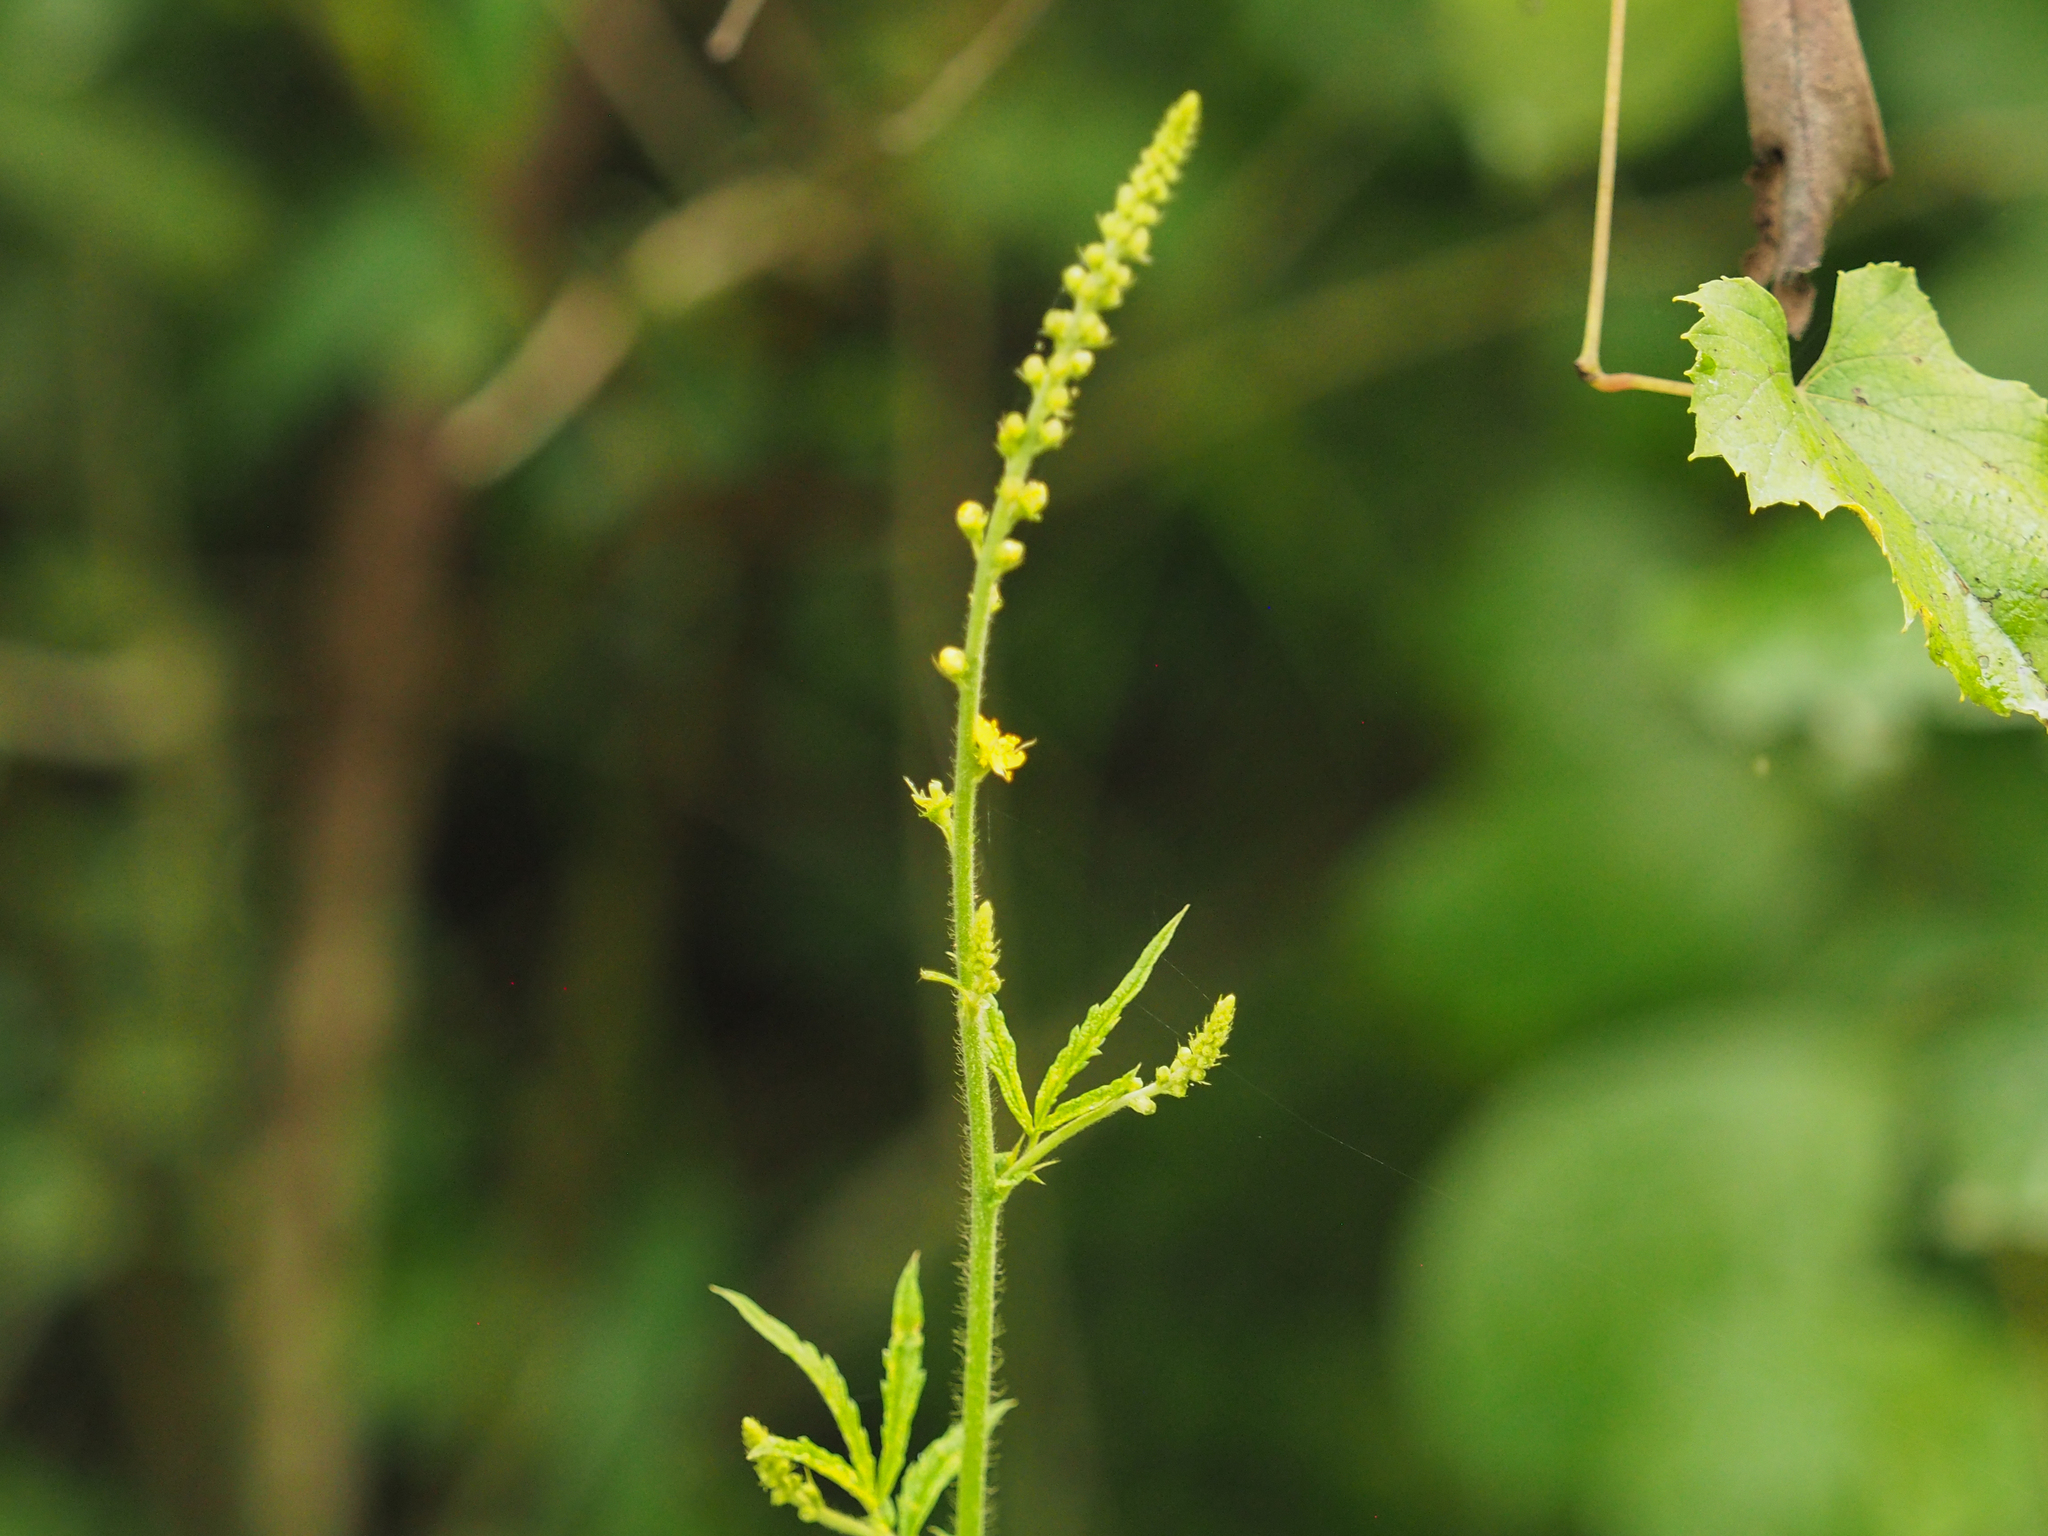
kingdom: Animalia
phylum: Arthropoda
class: Insecta
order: Coleoptera
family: Chrysomelidae
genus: Chrysochus
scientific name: Chrysochus auratus
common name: Dogbane leaf beetle
